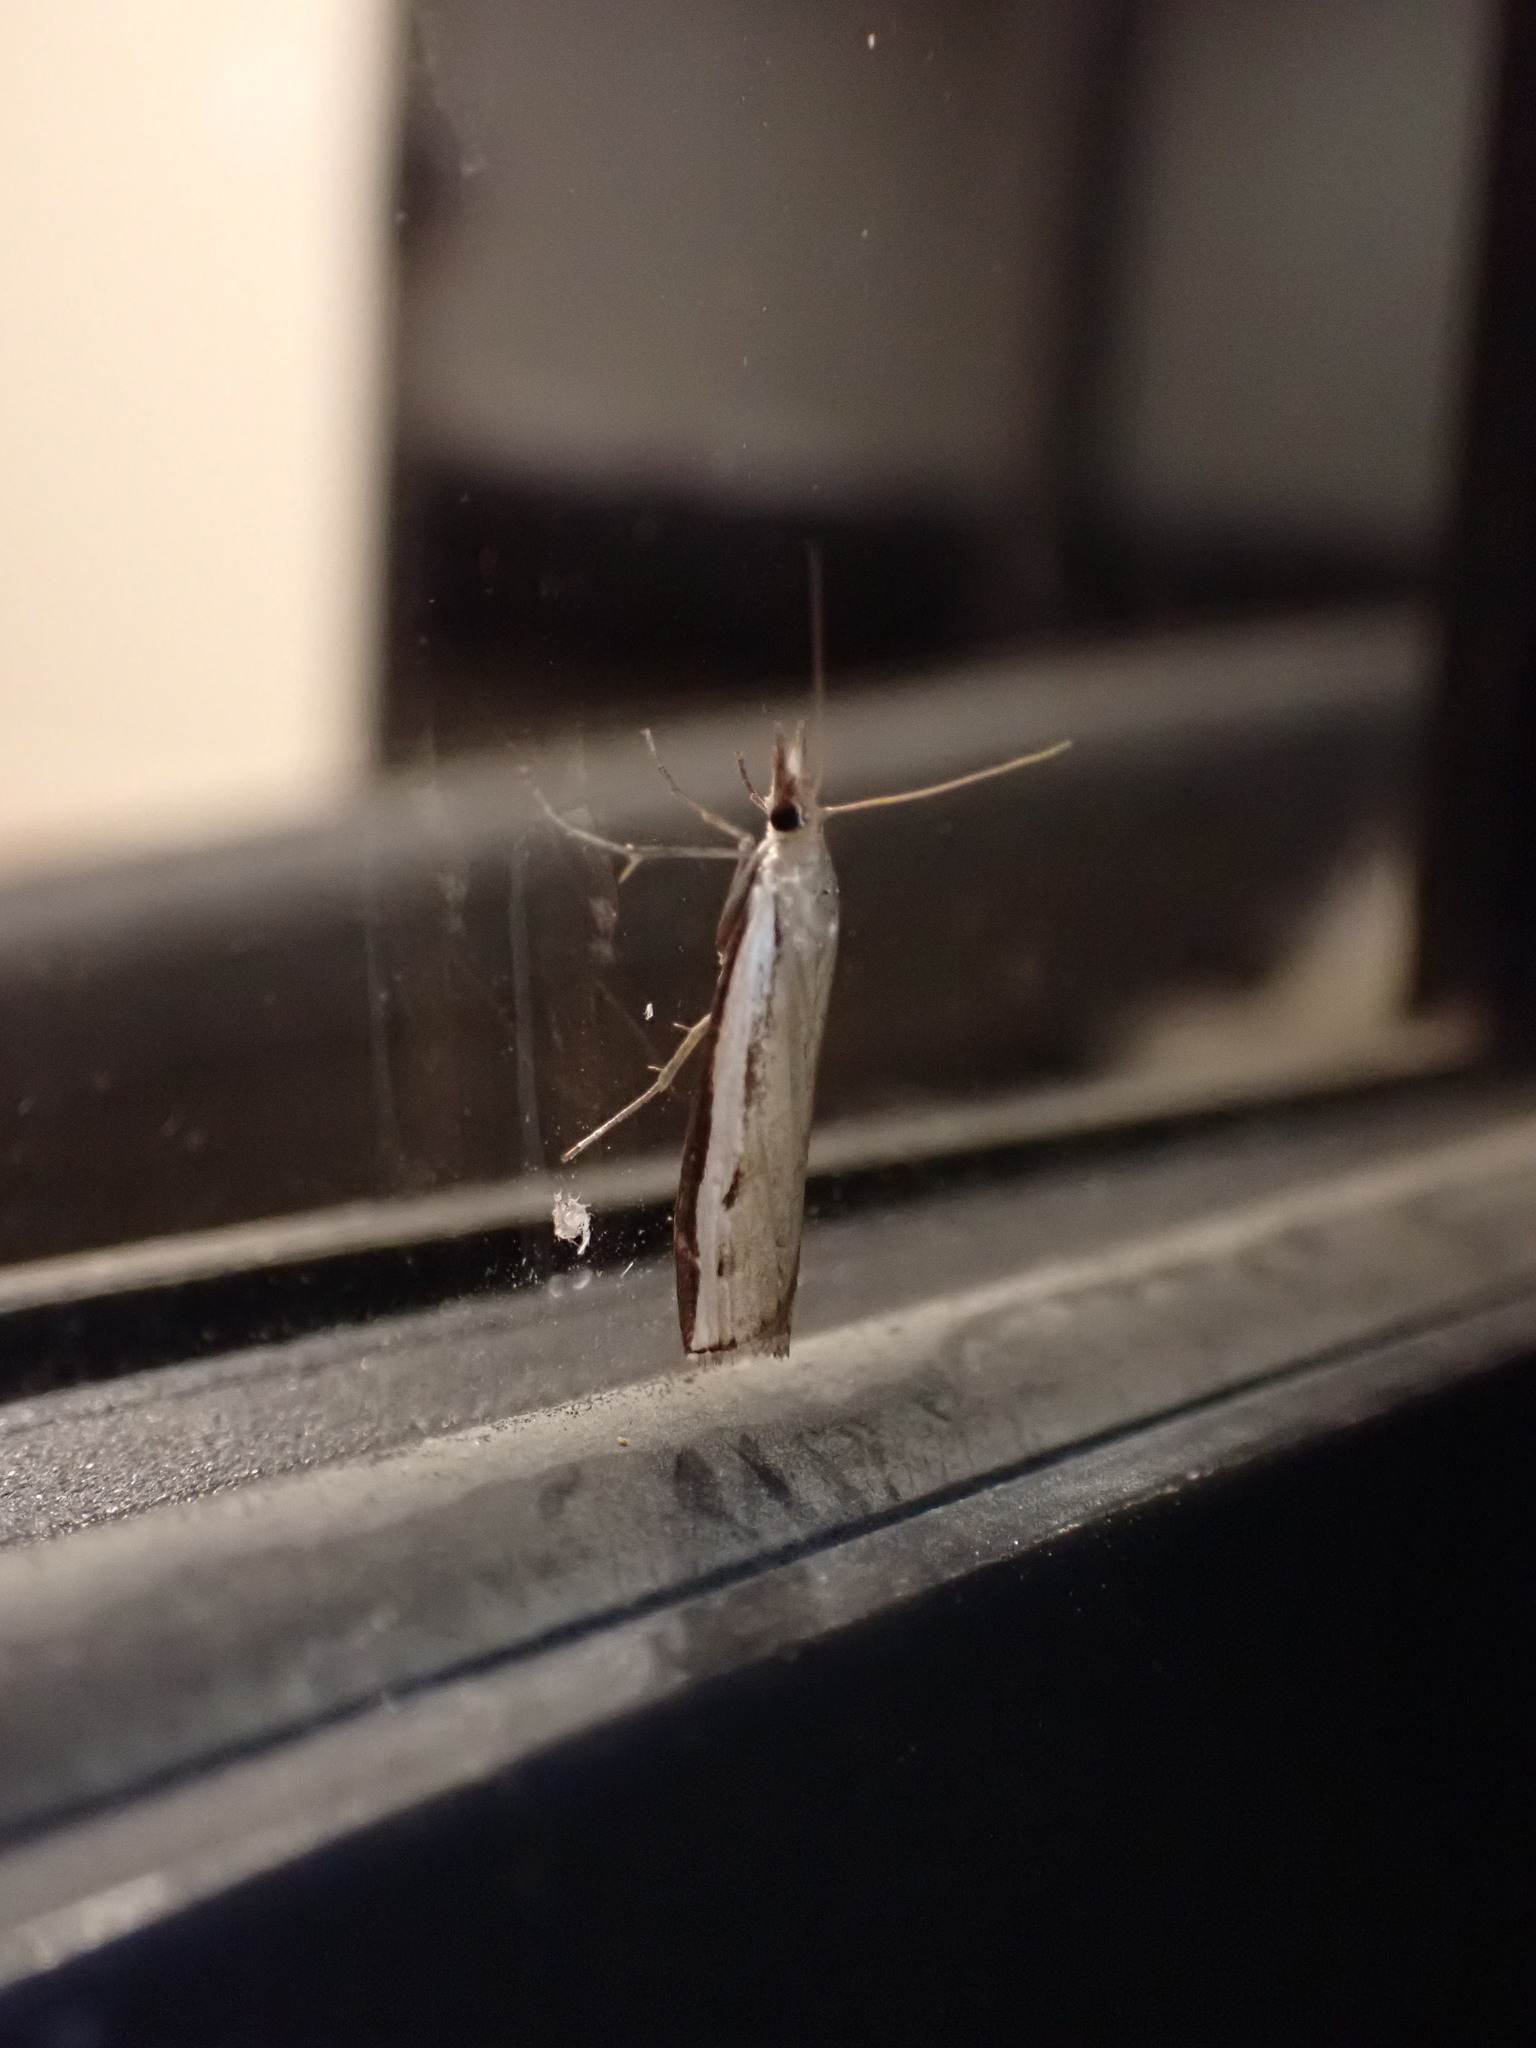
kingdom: Animalia
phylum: Arthropoda
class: Insecta
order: Lepidoptera
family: Crambidae
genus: Orocrambus
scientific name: Orocrambus flexuosellus
